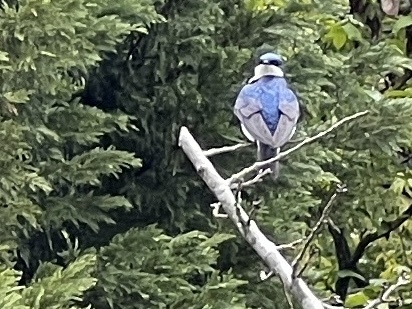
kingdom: Animalia
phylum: Chordata
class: Aves
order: Passeriformes
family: Hirundinidae
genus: Tachycineta
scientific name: Tachycineta bicolor
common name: Tree swallow
